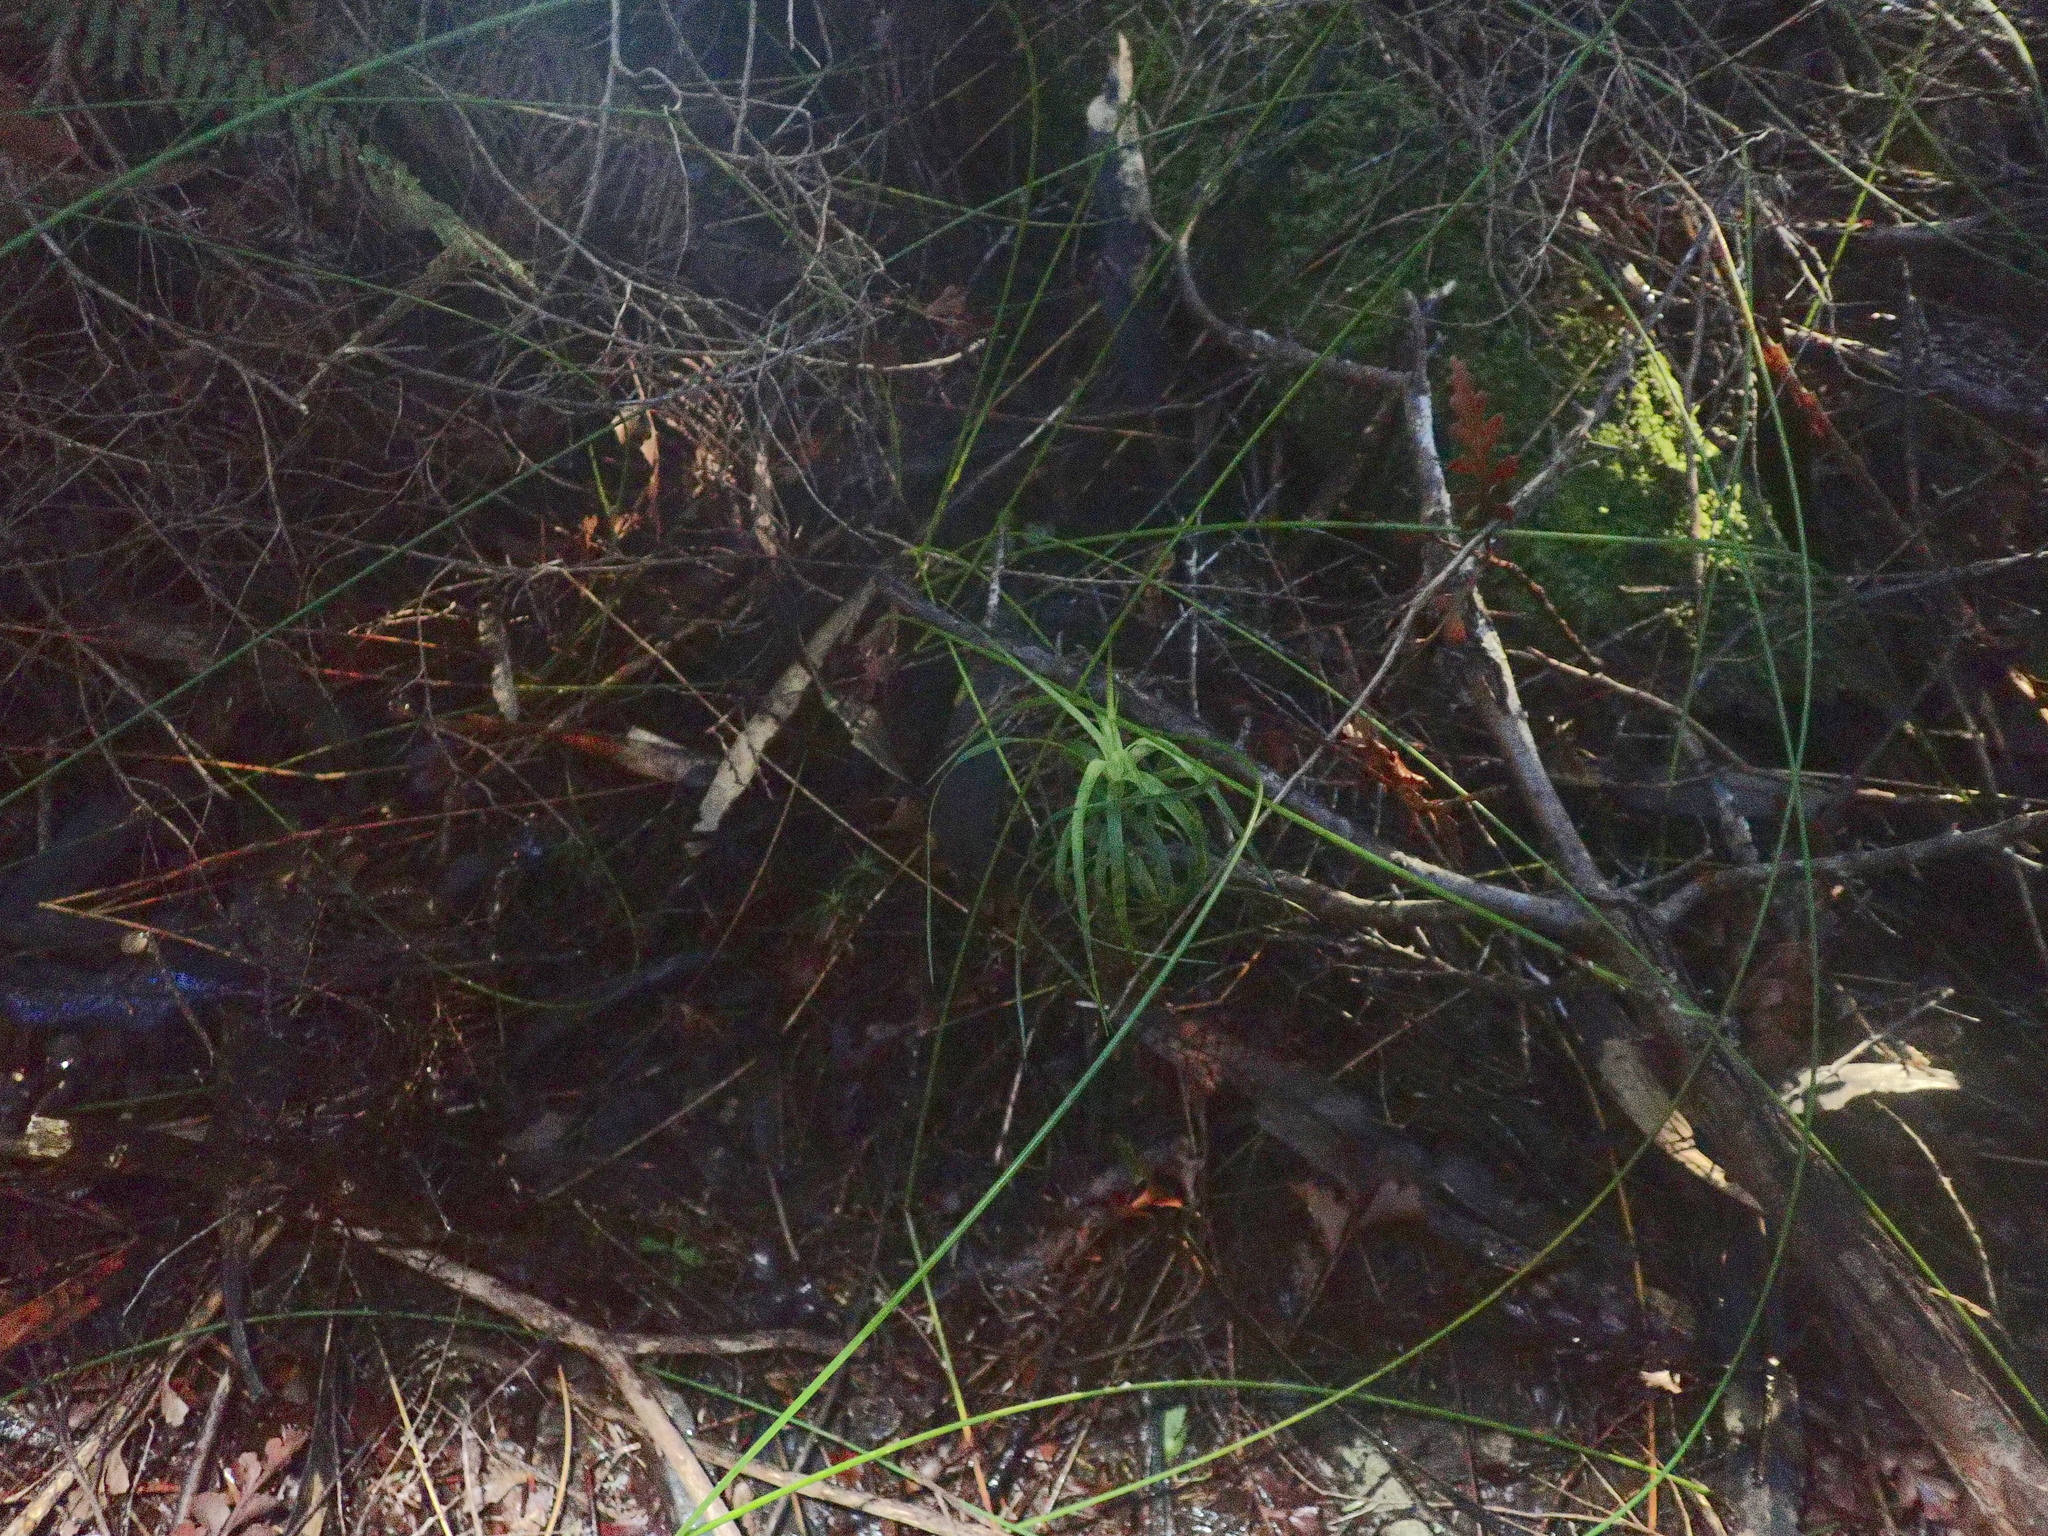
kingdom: Plantae
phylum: Tracheophyta
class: Magnoliopsida
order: Ericales
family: Ericaceae
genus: Dracophyllum
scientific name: Dracophyllum sinclairii
